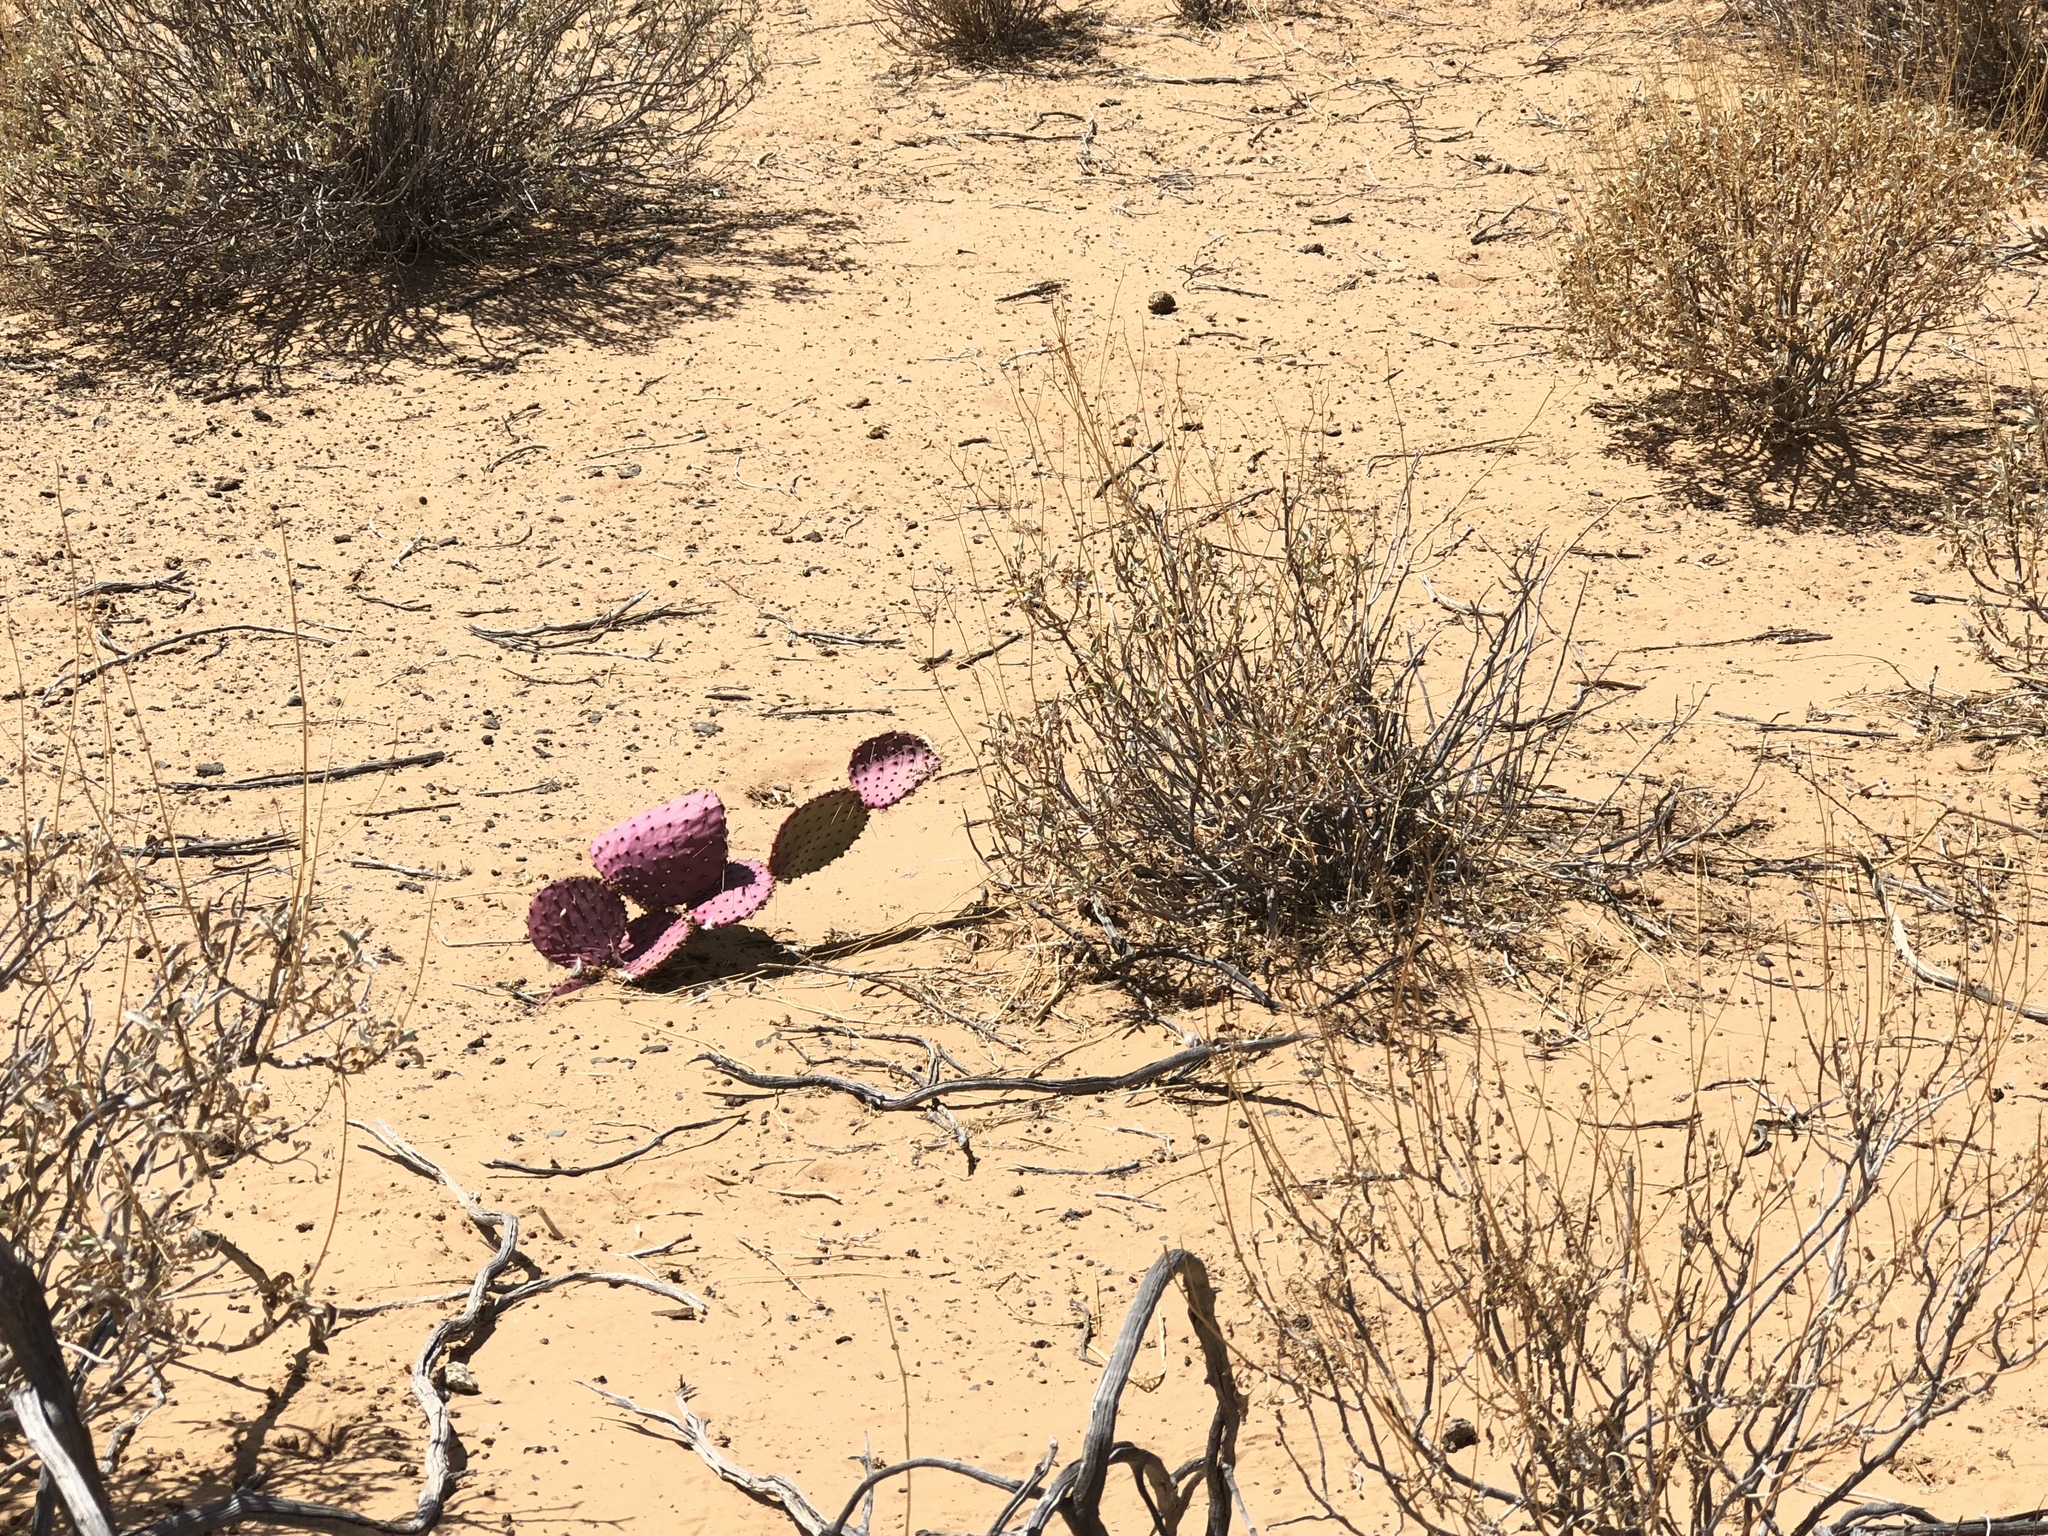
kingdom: Plantae
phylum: Tracheophyta
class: Magnoliopsida
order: Caryophyllales
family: Cactaceae
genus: Opuntia
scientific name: Opuntia gosseliniana
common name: Violet prickly-pear
